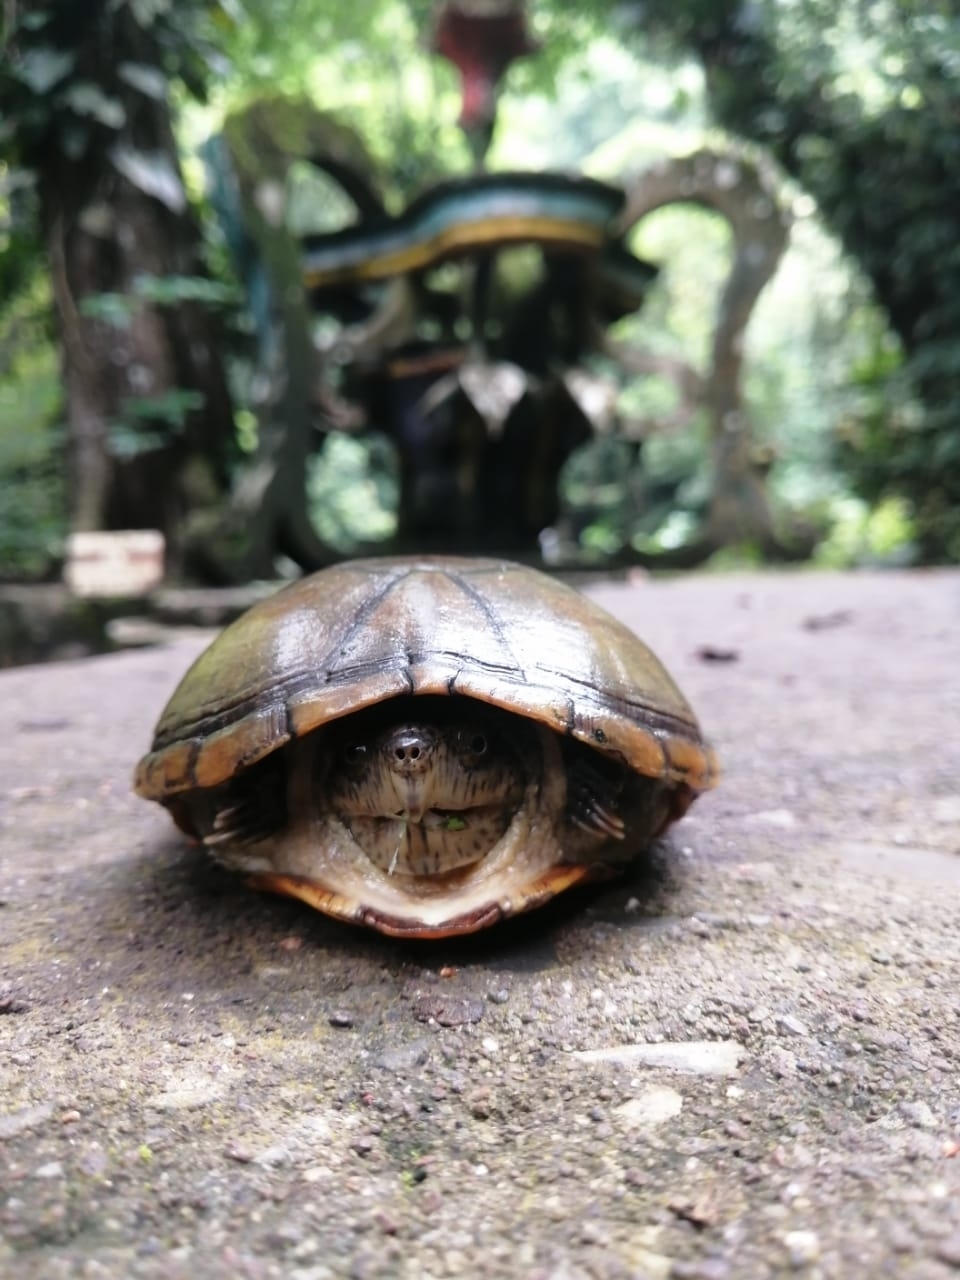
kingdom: Animalia
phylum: Chordata
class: Testudines
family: Kinosternidae
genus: Kinosternon
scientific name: Kinosternon herrerai
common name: Herrera's mud turtle
